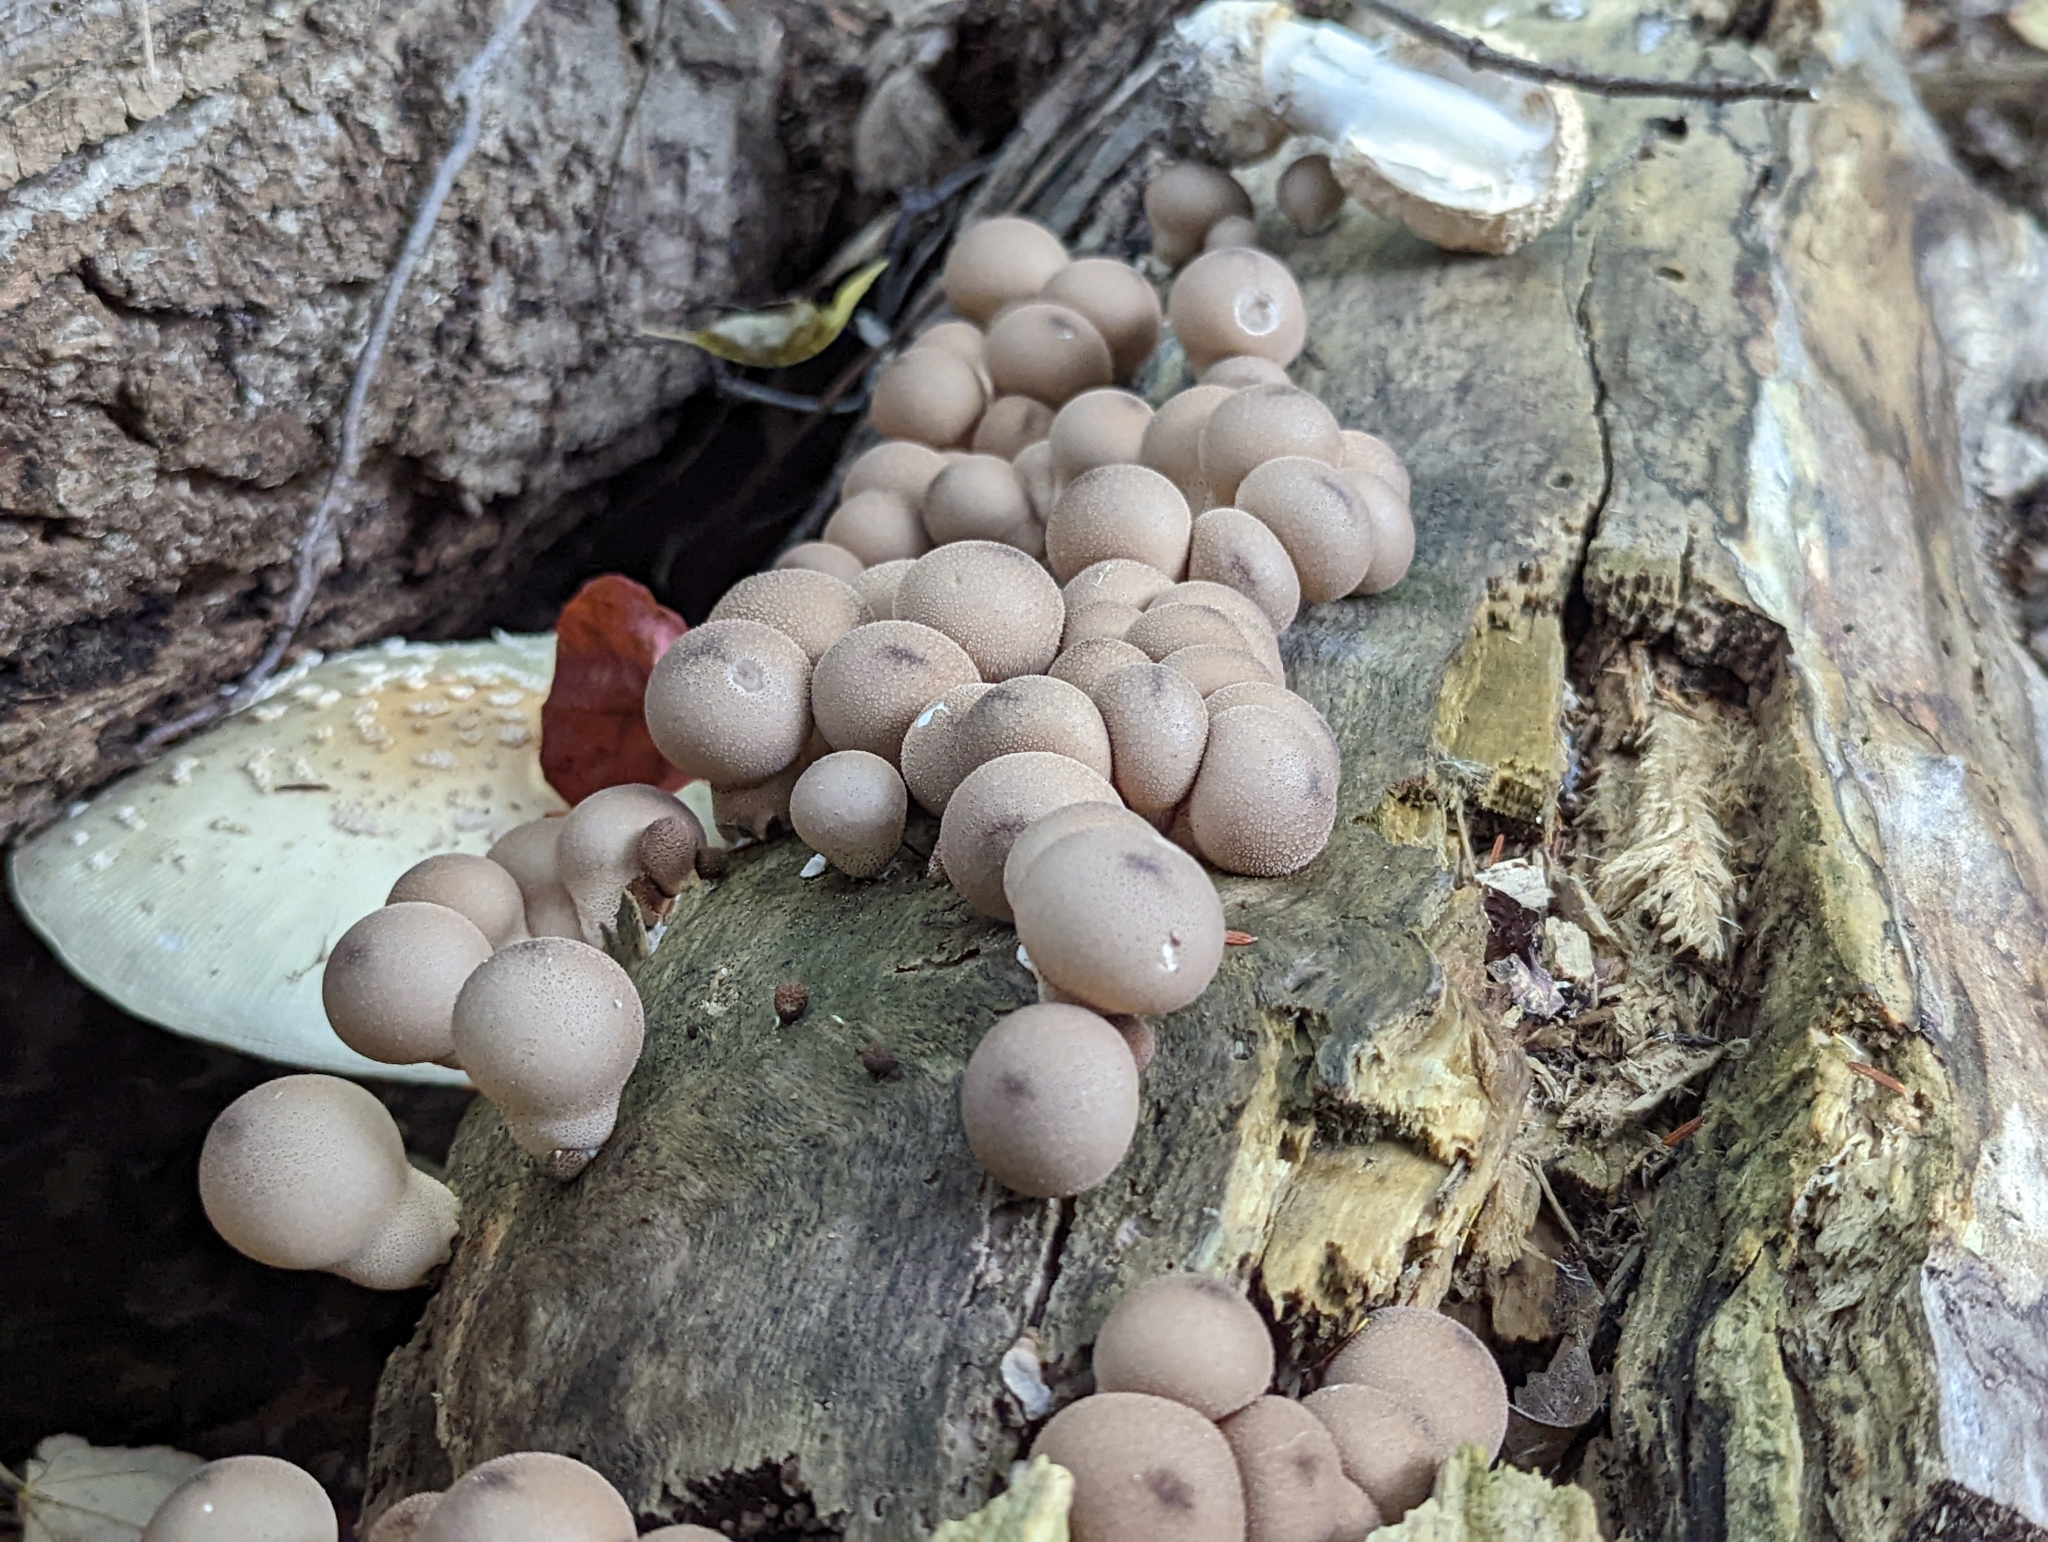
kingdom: Fungi
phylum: Basidiomycota
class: Agaricomycetes
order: Agaricales
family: Lycoperdaceae
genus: Apioperdon
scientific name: Apioperdon pyriforme
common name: Pear-shaped puffball
